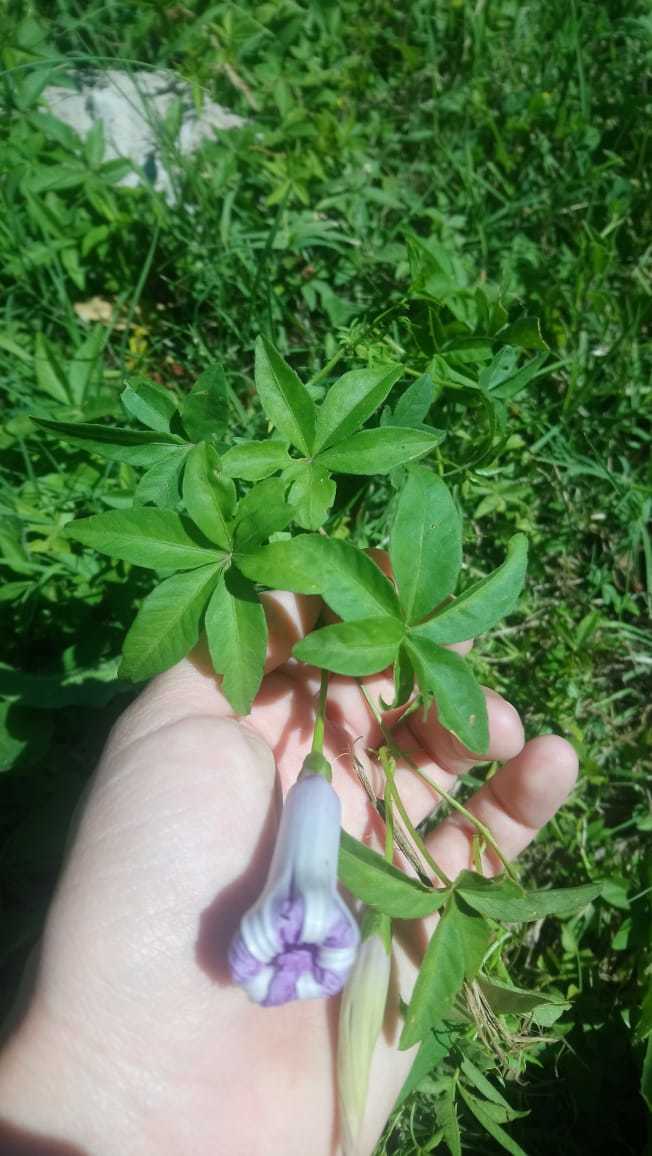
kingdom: Plantae
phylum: Tracheophyta
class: Magnoliopsida
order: Solanales
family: Convolvulaceae
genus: Ipomoea
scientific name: Ipomoea cairica
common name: Mile a minute vine
